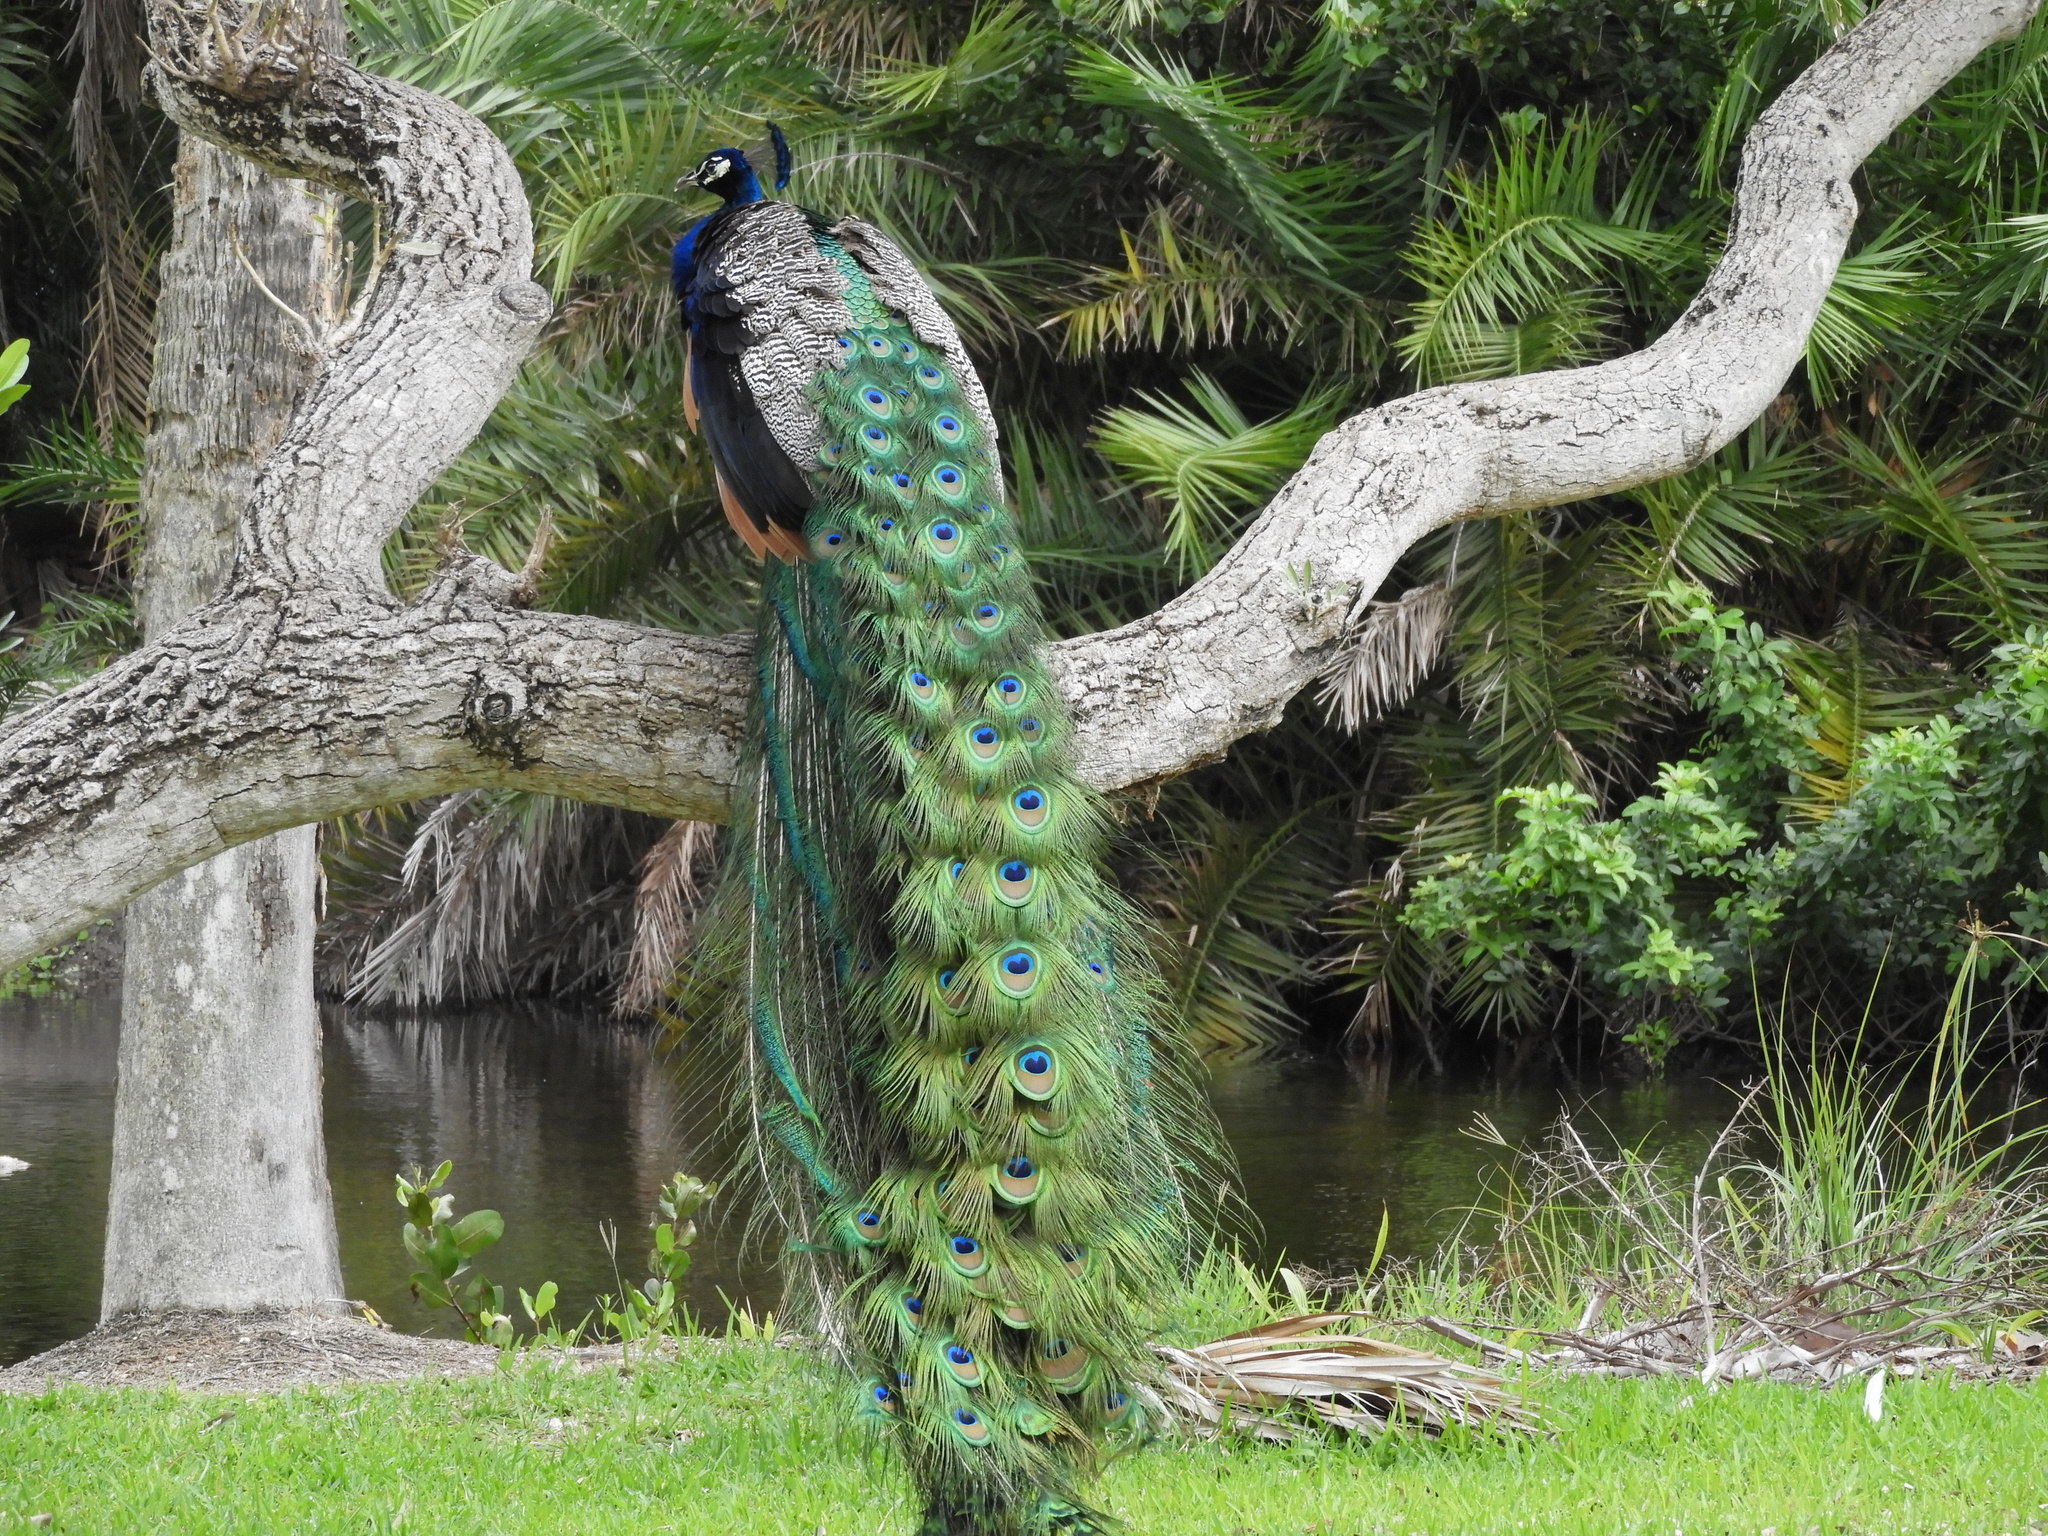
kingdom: Animalia
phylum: Chordata
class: Aves
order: Galliformes
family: Phasianidae
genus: Pavo
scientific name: Pavo cristatus
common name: Indian peafowl
